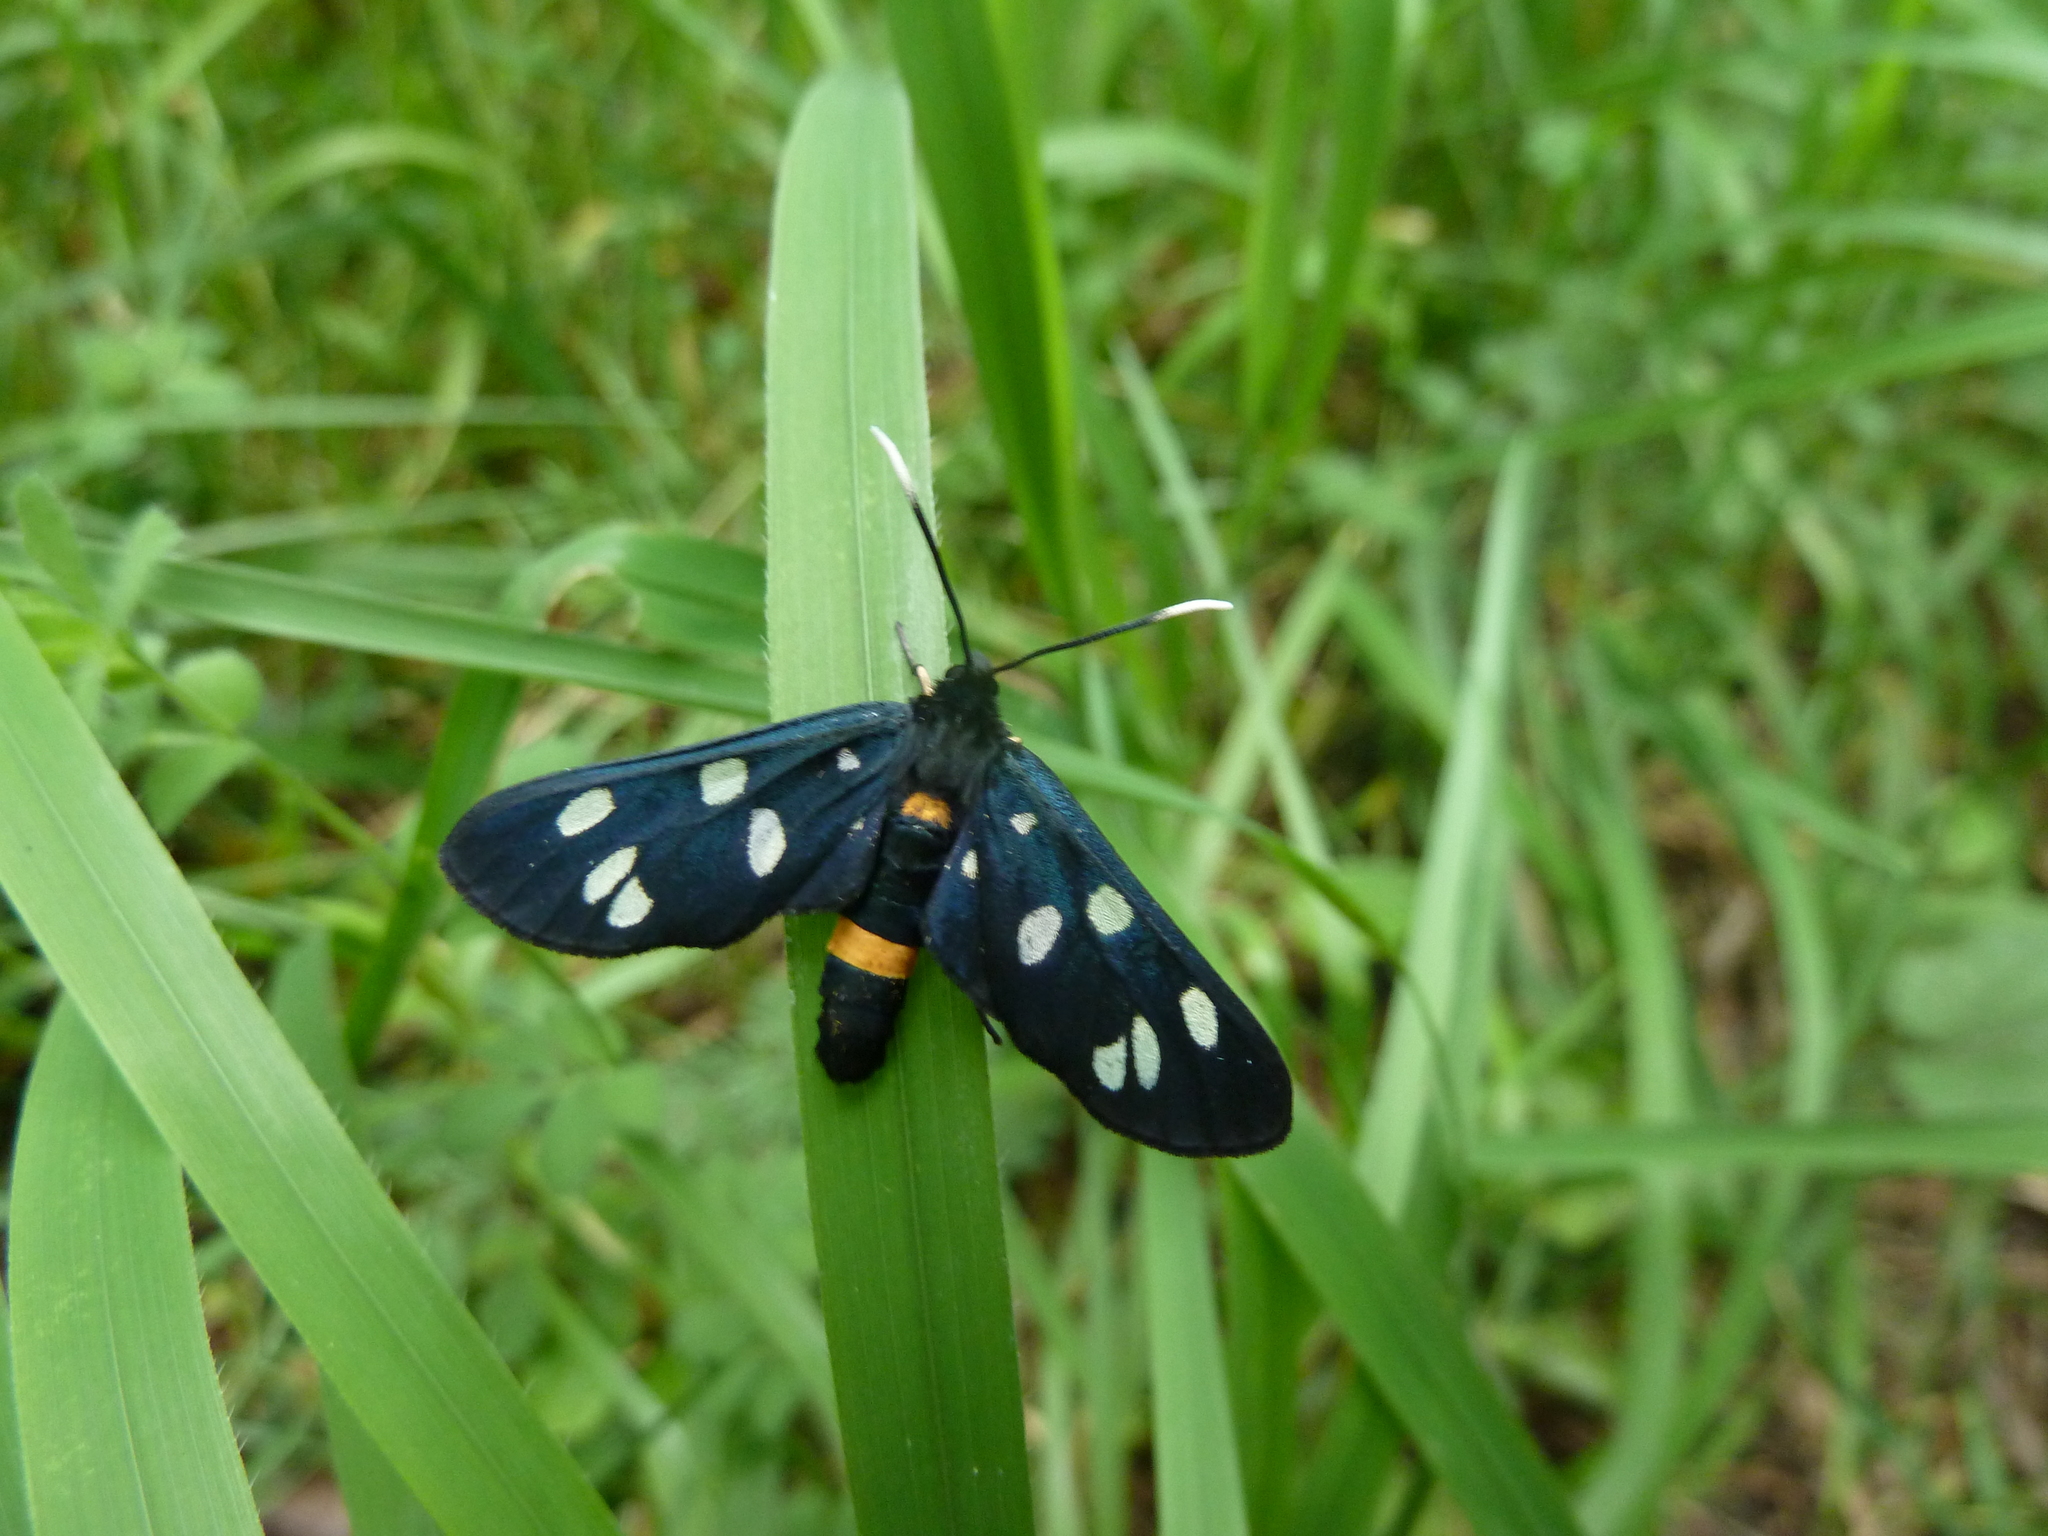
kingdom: Animalia
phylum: Arthropoda
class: Insecta
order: Lepidoptera
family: Erebidae
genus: Amata
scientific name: Amata phegea
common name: Nine-spotted
